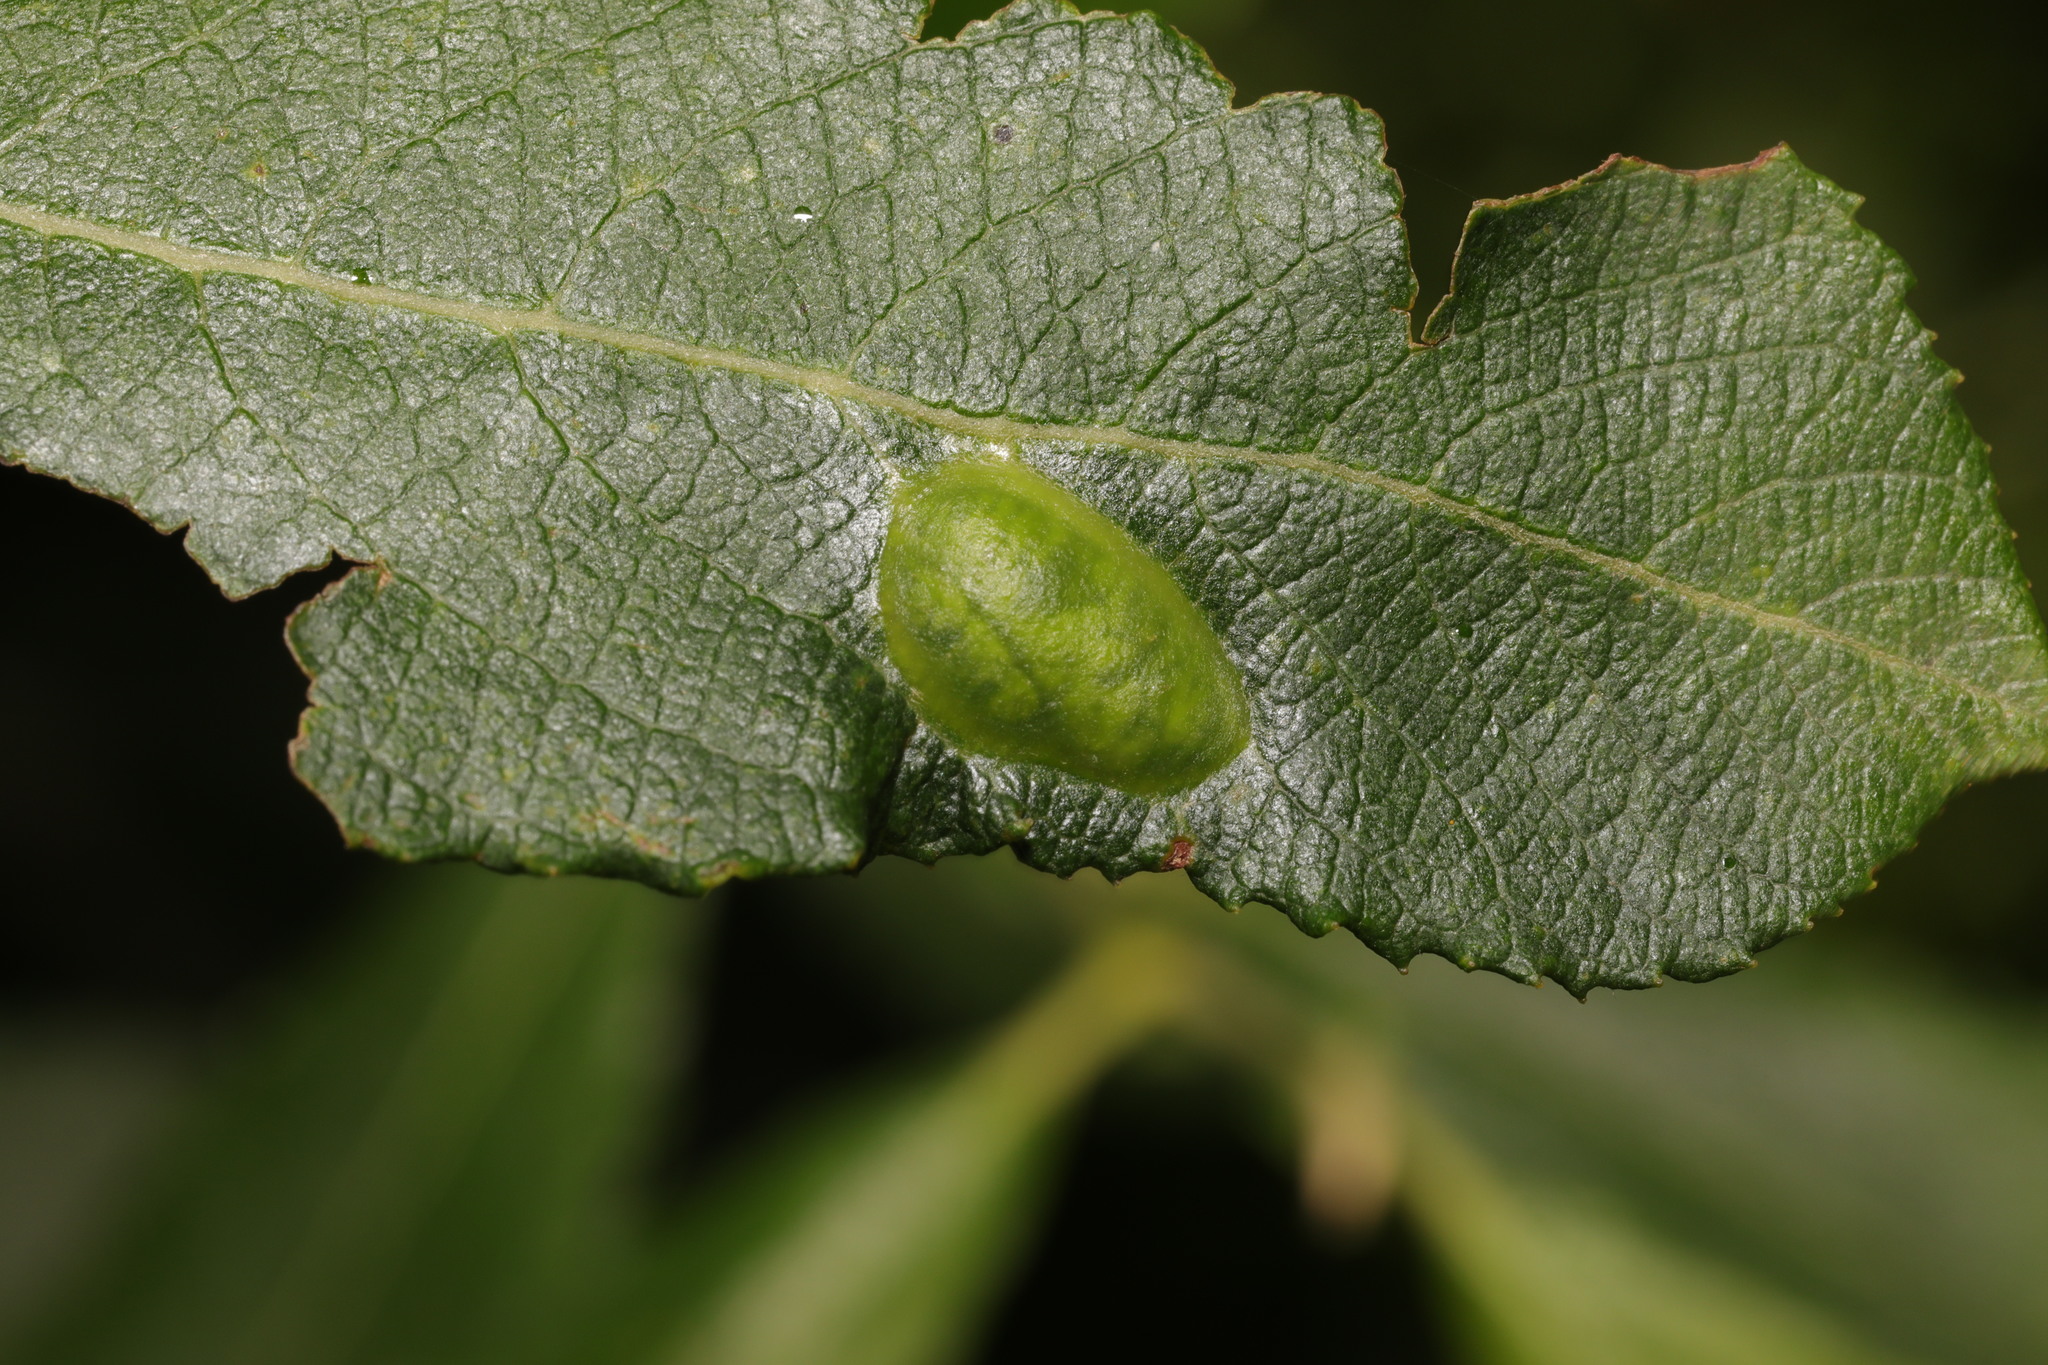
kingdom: Animalia
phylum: Arthropoda
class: Insecta
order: Hymenoptera
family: Tenthredinidae
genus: Pontania
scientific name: Pontania bridgmanii
